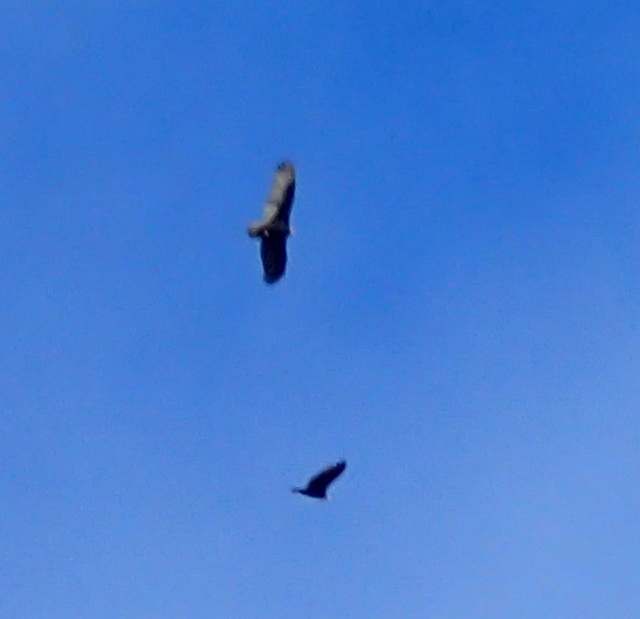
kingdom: Animalia
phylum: Chordata
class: Aves
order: Accipitriformes
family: Cathartidae
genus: Cathartes
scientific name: Cathartes aura
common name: Turkey vulture
